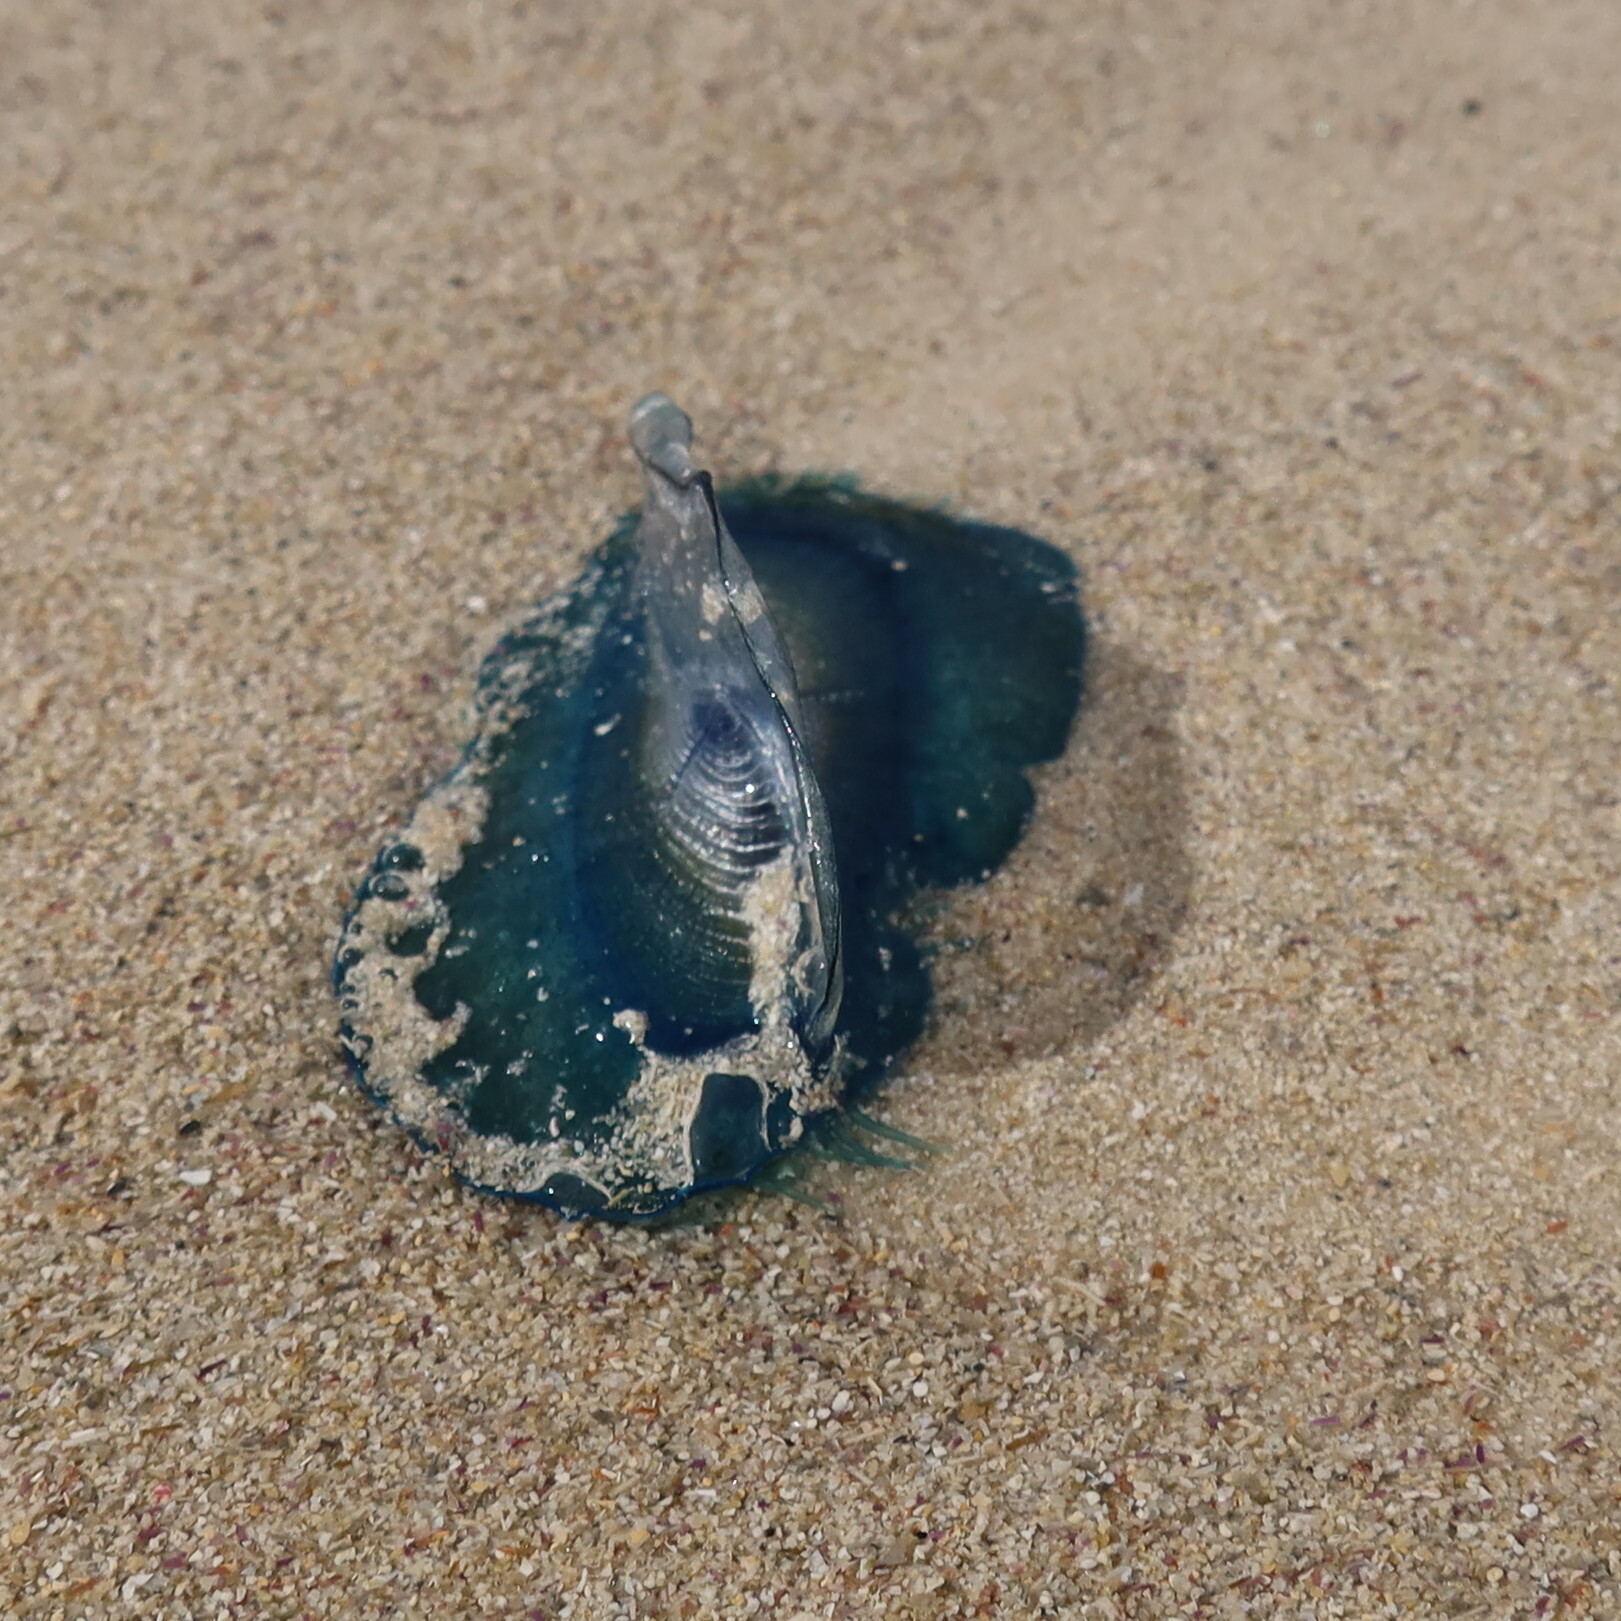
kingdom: Animalia
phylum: Cnidaria
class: Hydrozoa
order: Anthoathecata
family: Porpitidae
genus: Velella
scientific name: Velella velella
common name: By-the-wind-sailor
